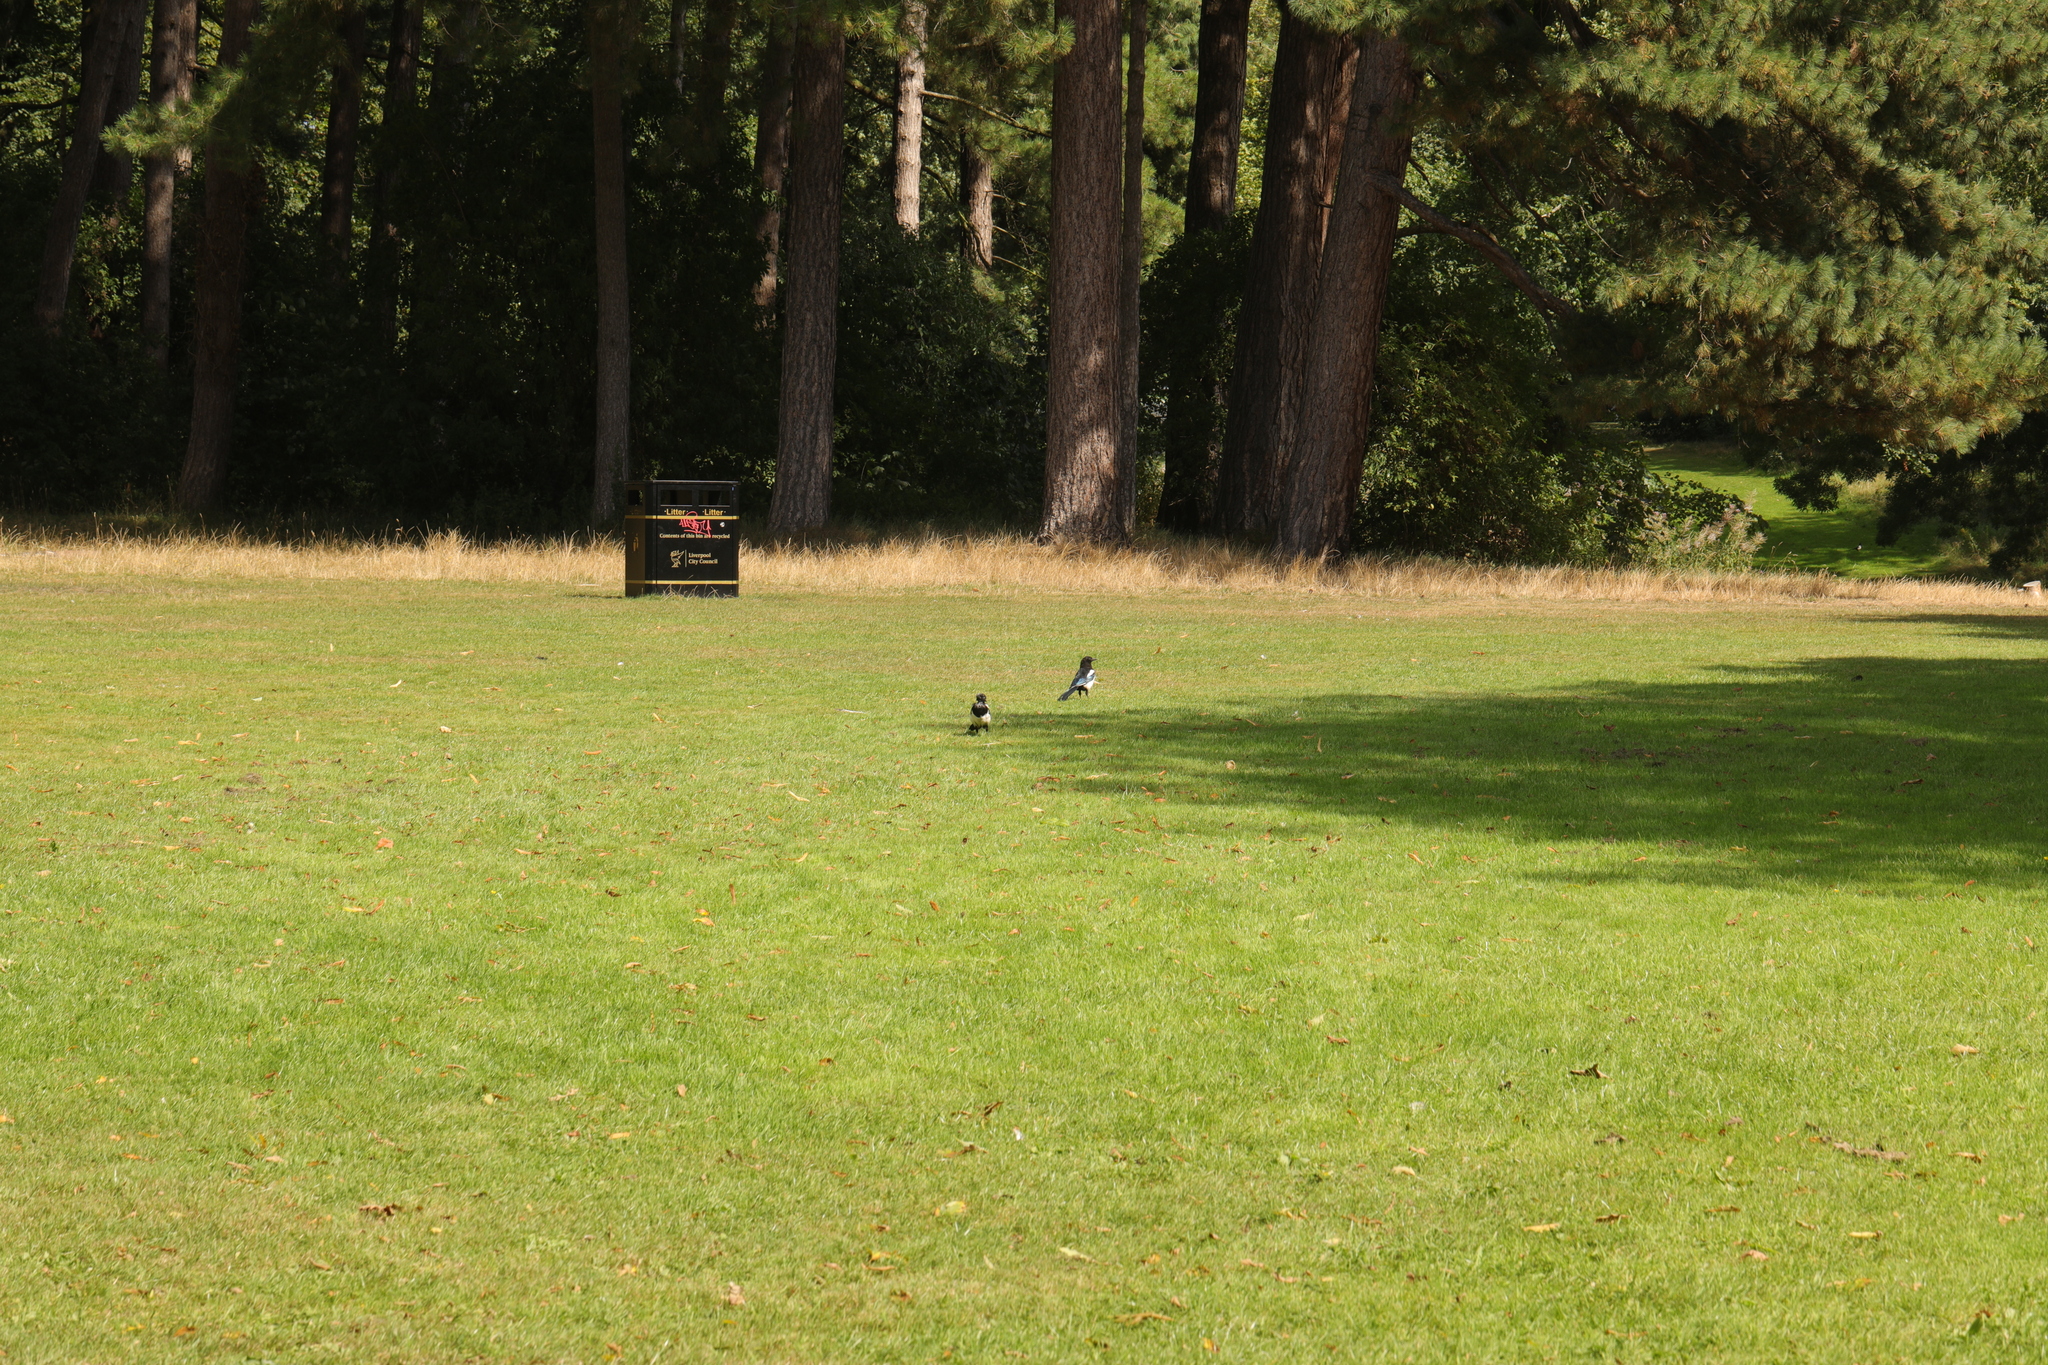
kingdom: Animalia
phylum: Chordata
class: Aves
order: Passeriformes
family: Corvidae
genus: Pica
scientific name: Pica pica
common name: Eurasian magpie
